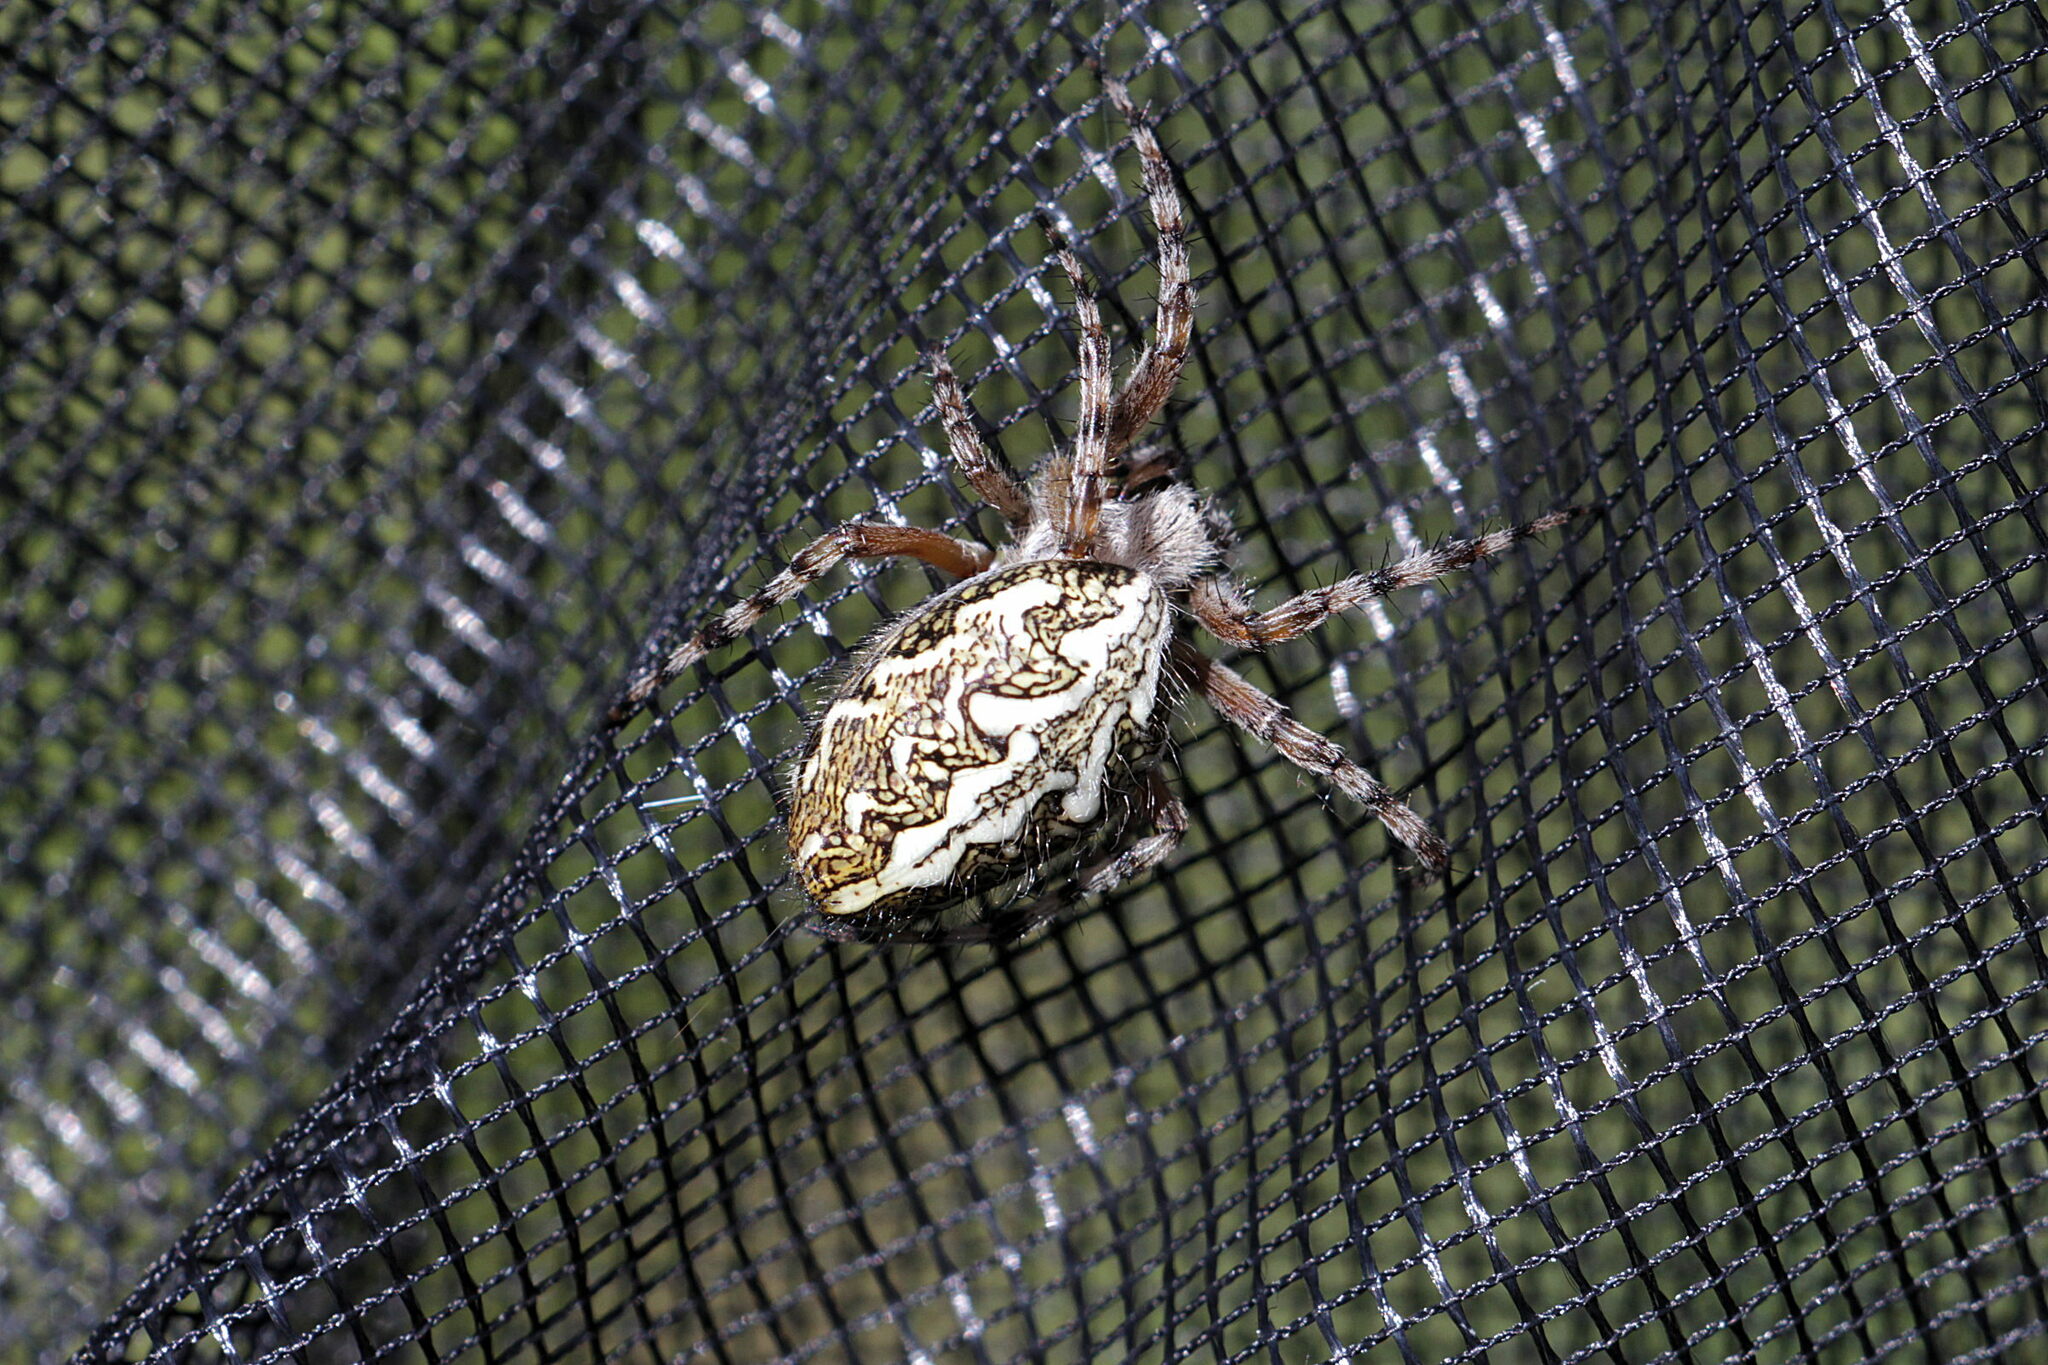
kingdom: Animalia
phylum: Arthropoda
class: Arachnida
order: Araneae
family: Araneidae
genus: Aculepeira
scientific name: Aculepeira ceropegia
